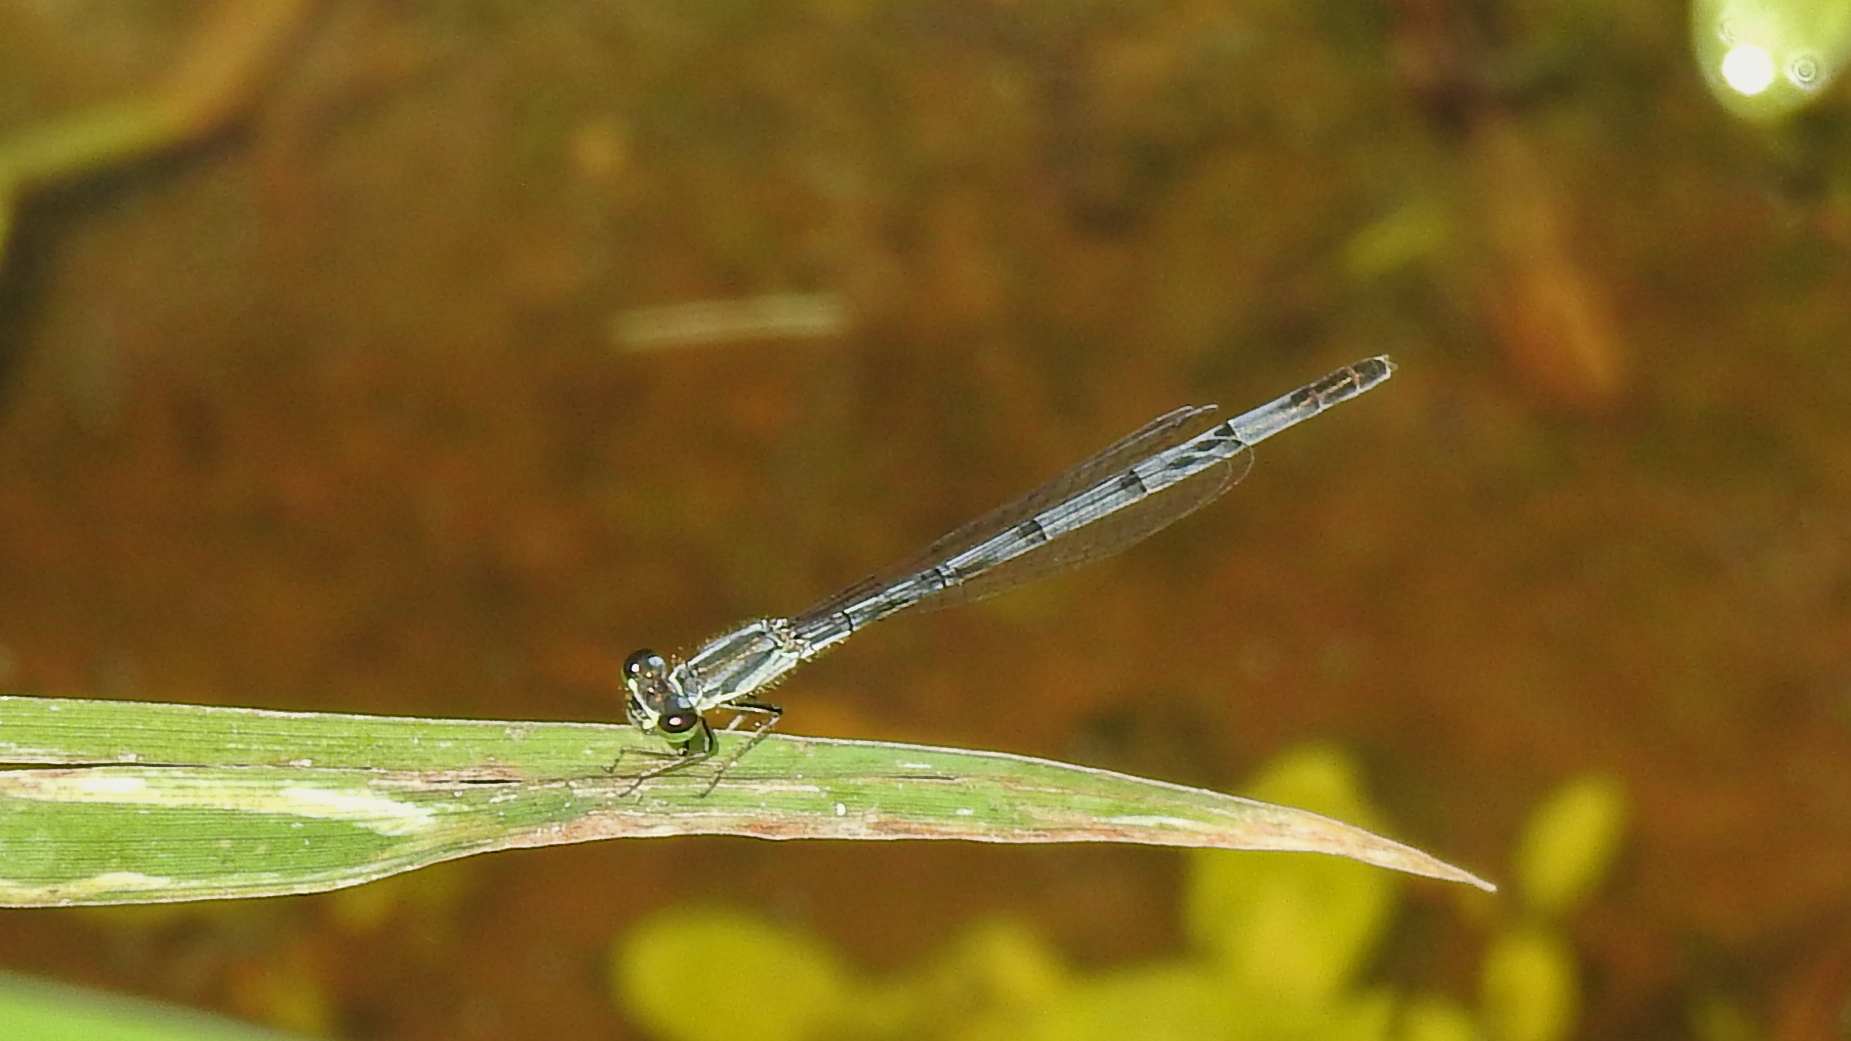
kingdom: Animalia
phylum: Arthropoda
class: Insecta
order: Odonata
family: Coenagrionidae
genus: Ischnura
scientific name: Ischnura verticalis
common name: Eastern forktail
